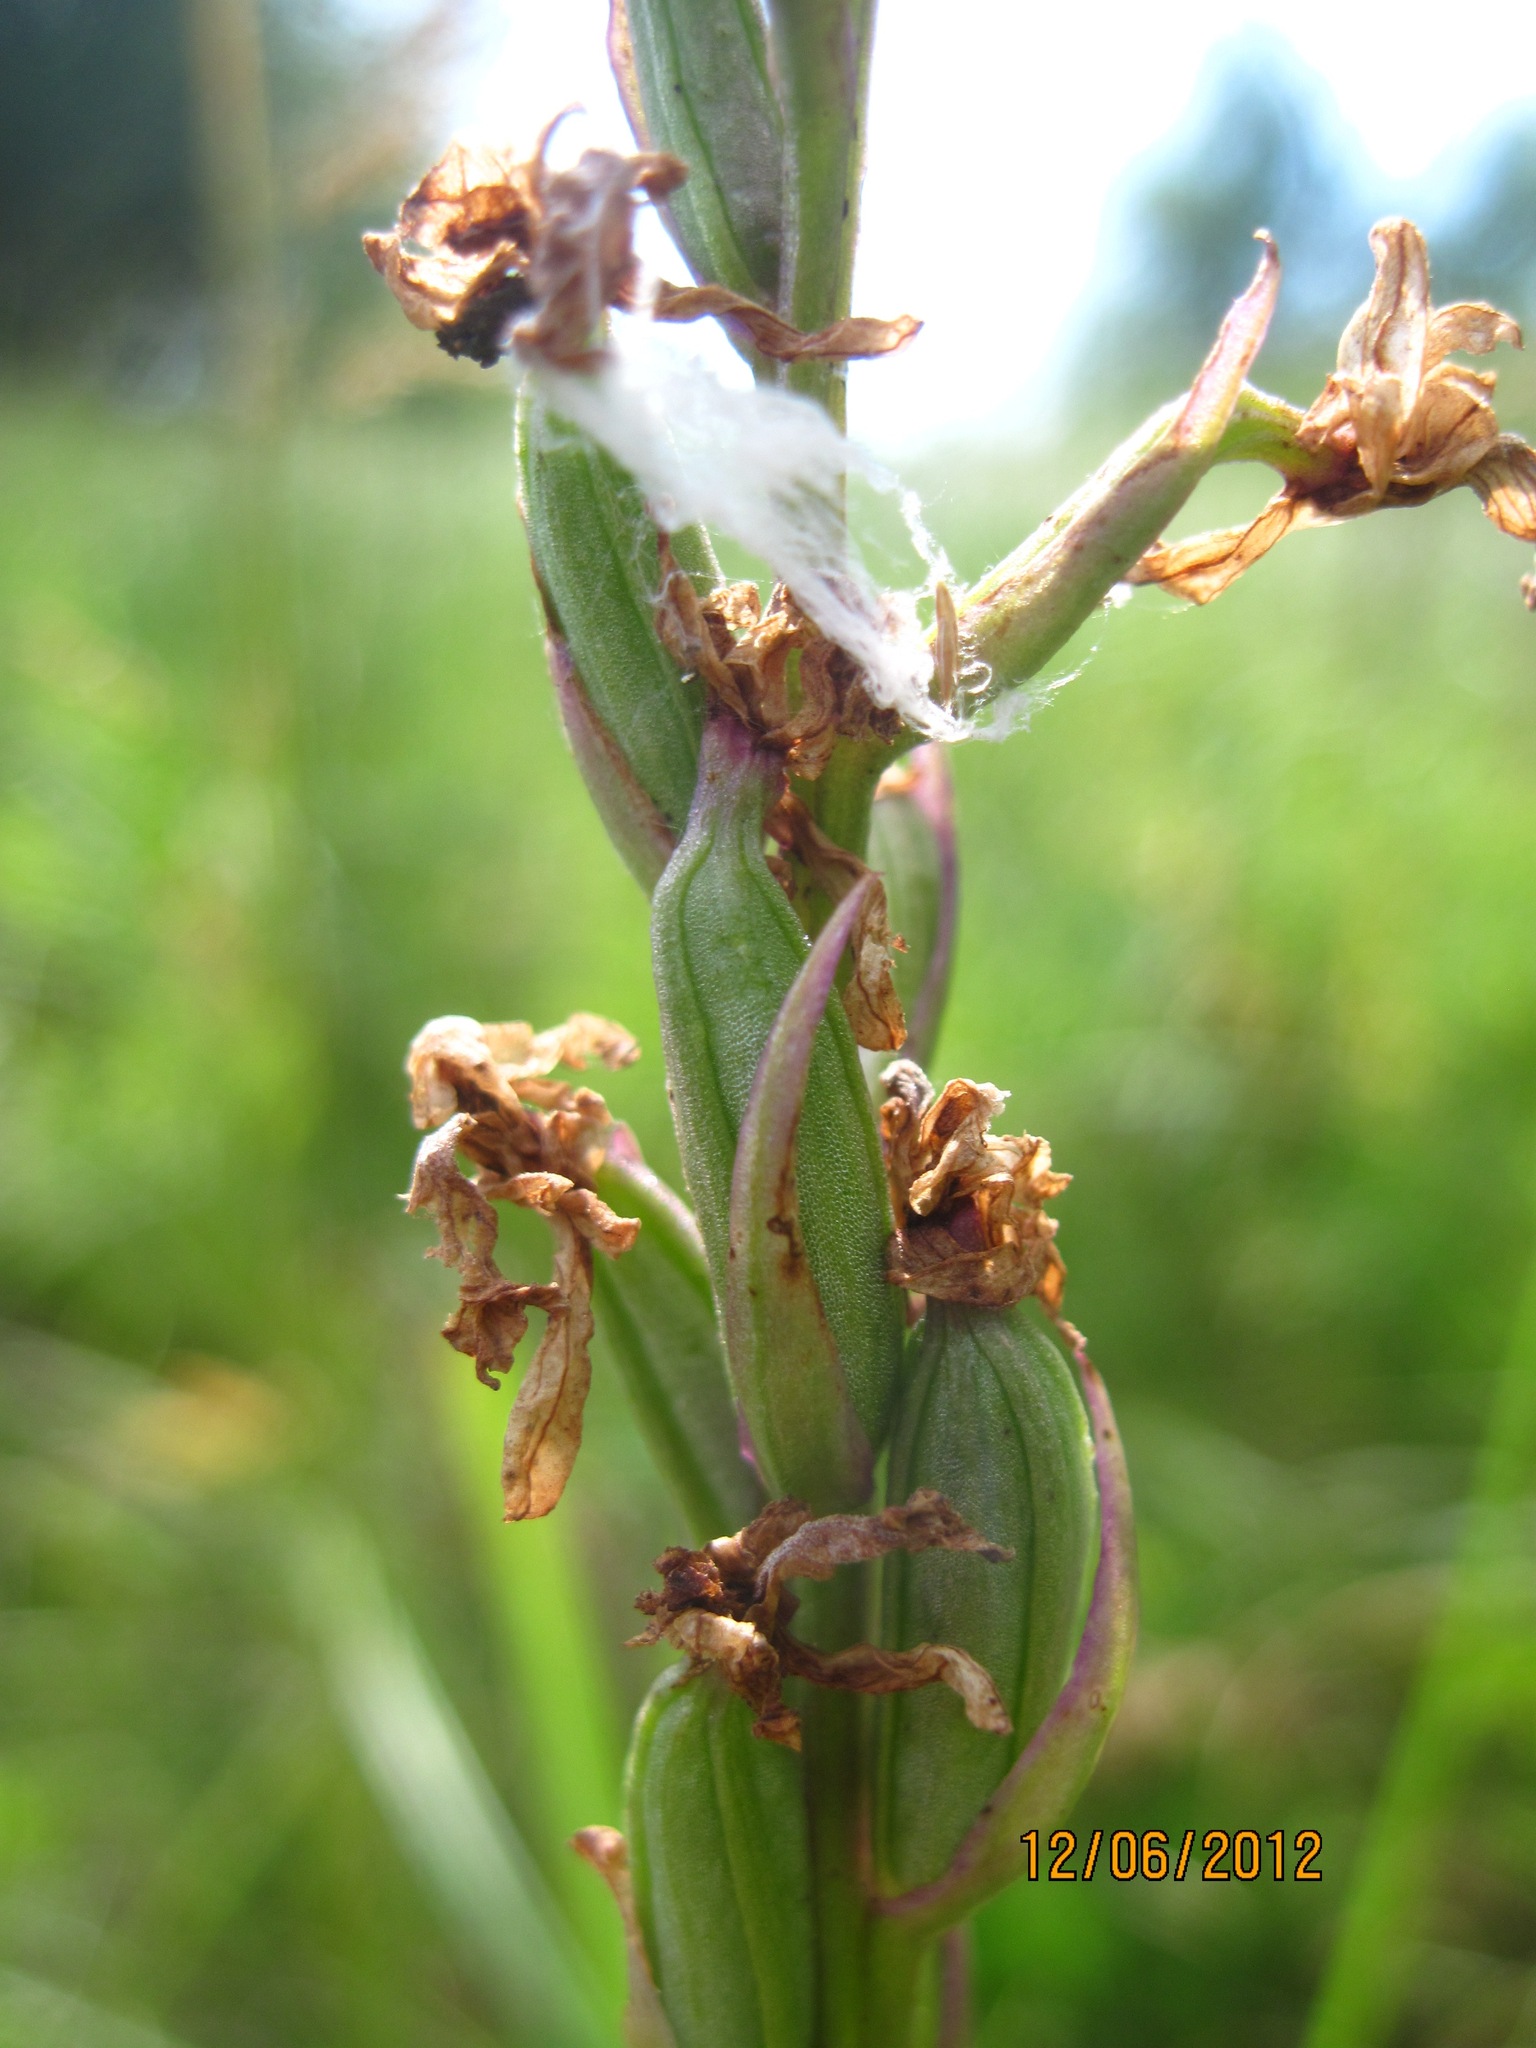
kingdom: Plantae
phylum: Tracheophyta
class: Liliopsida
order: Asparagales
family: Orchidaceae
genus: Anacamptis
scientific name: Anacamptis palustris
